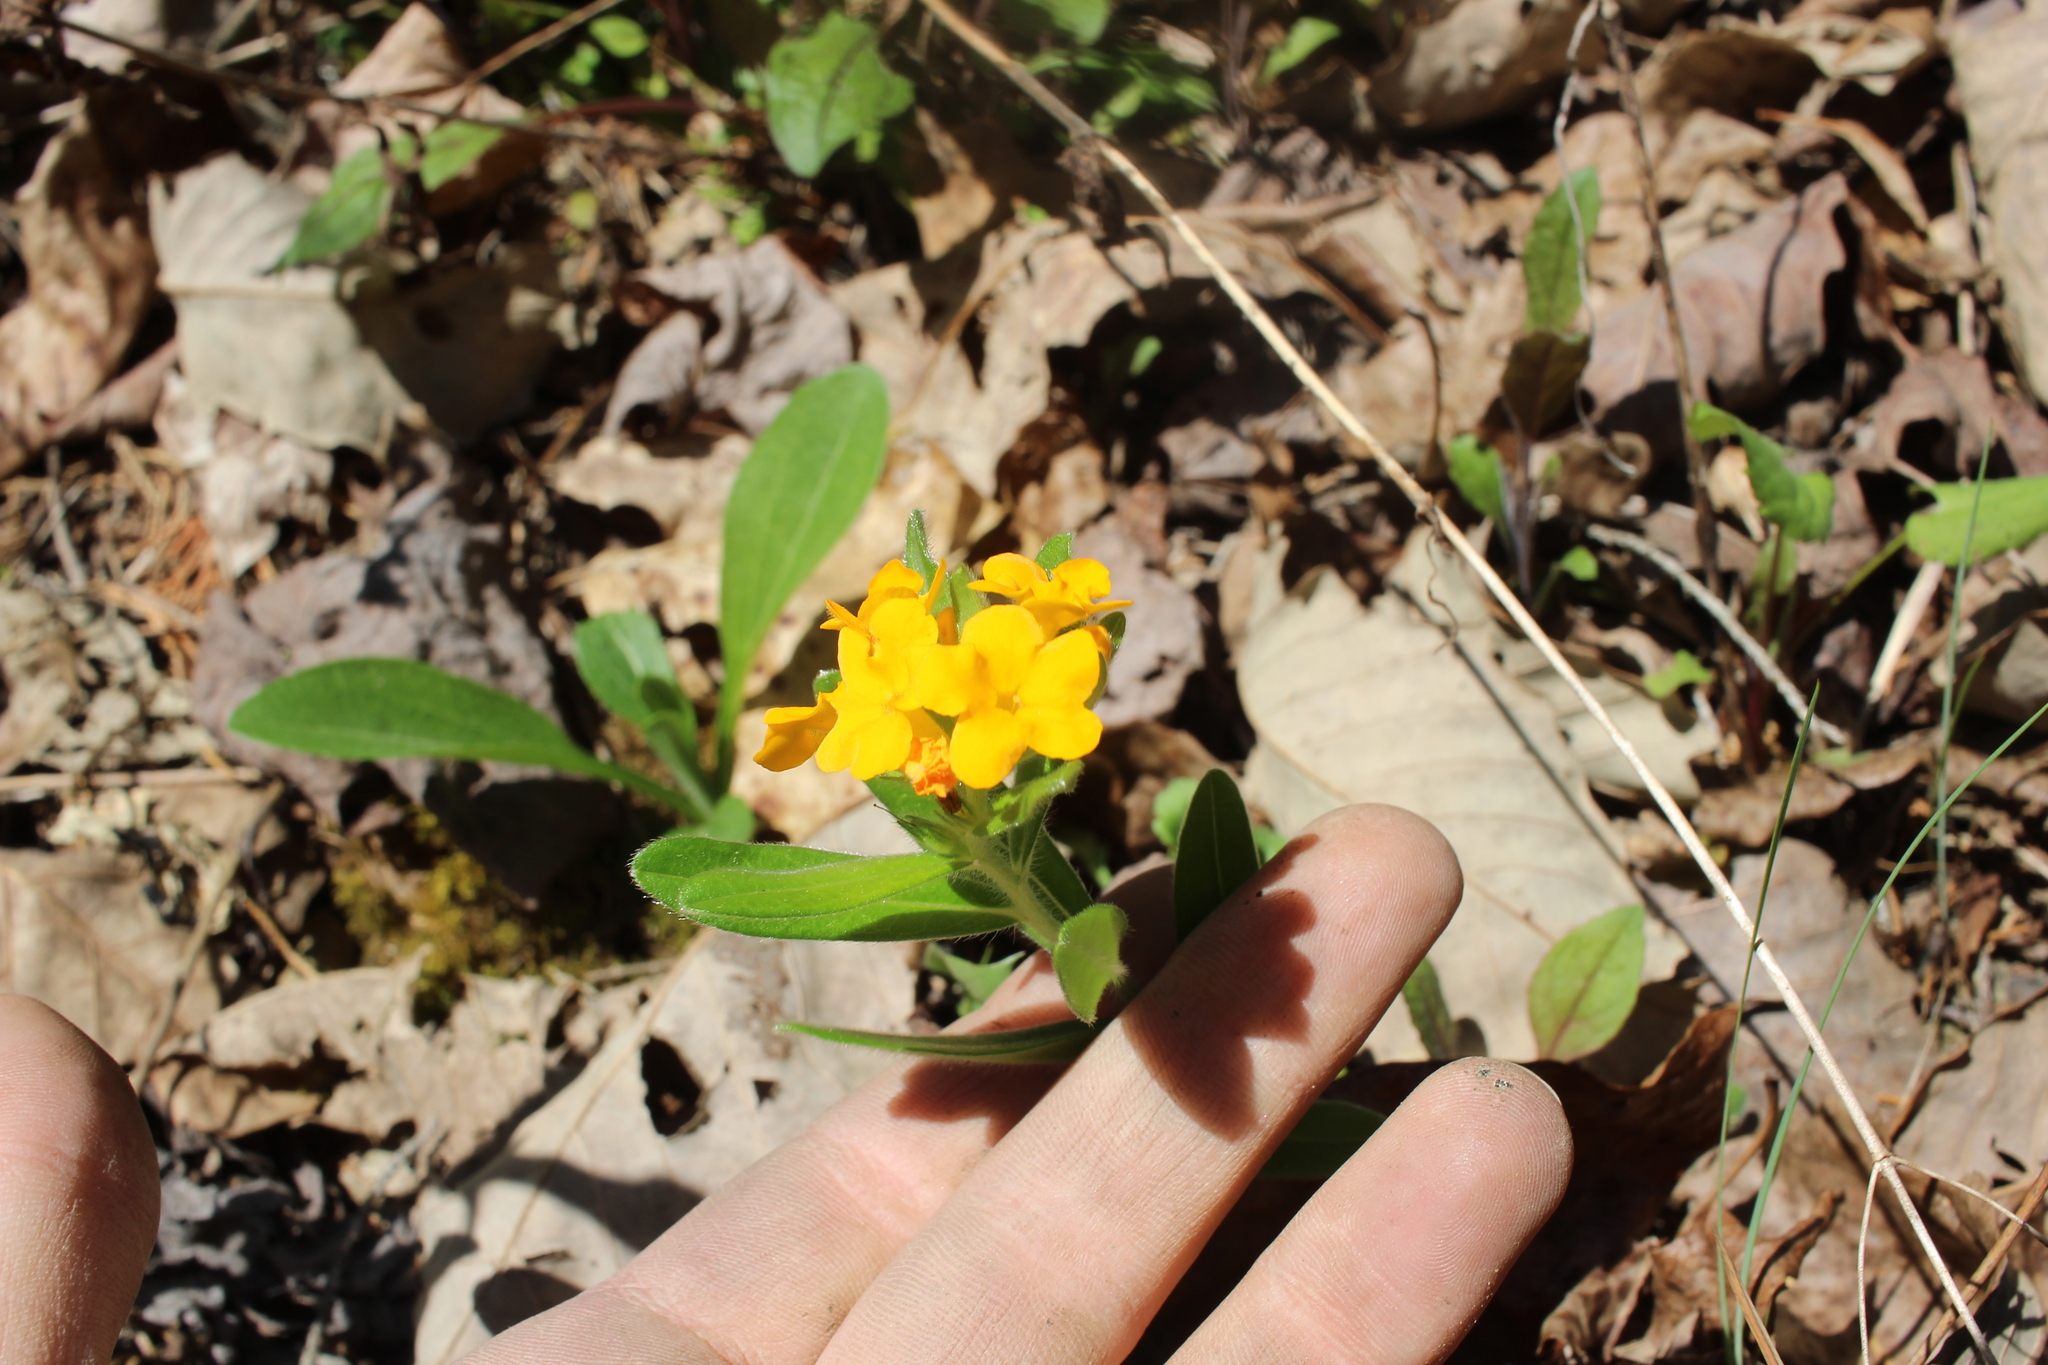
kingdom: Plantae
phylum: Tracheophyta
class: Magnoliopsida
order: Boraginales
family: Boraginaceae
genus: Lithospermum
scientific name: Lithospermum canescens
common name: Hoary puccoon
